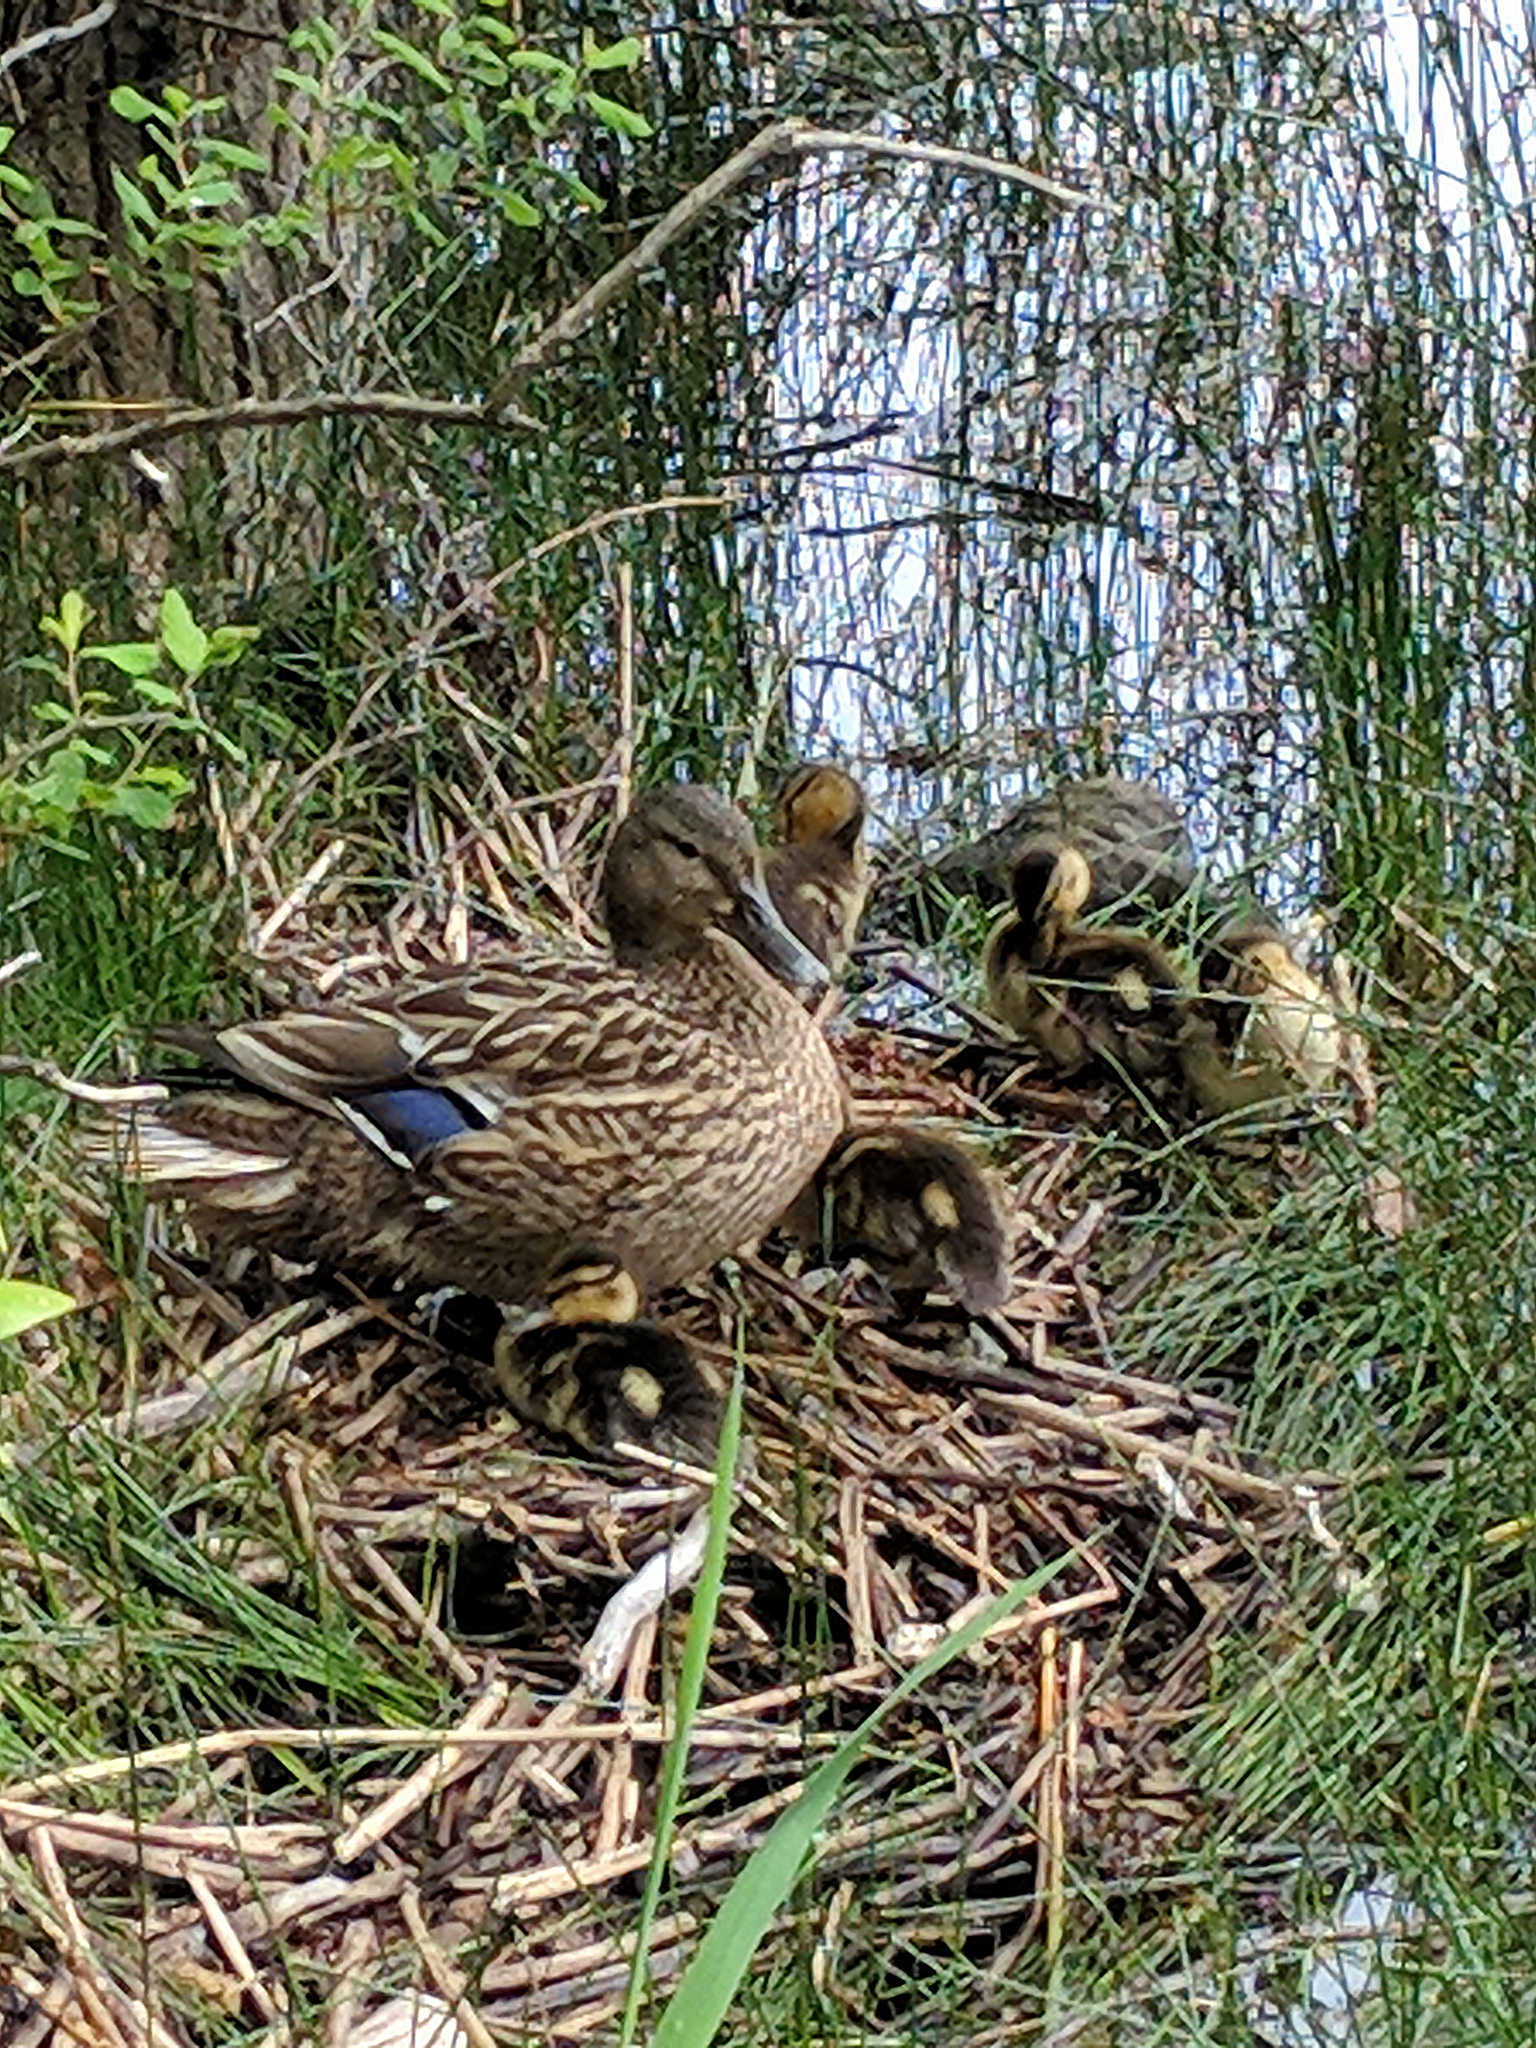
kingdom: Animalia
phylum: Chordata
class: Aves
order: Anseriformes
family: Anatidae
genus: Anas
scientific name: Anas platyrhynchos
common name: Mallard
